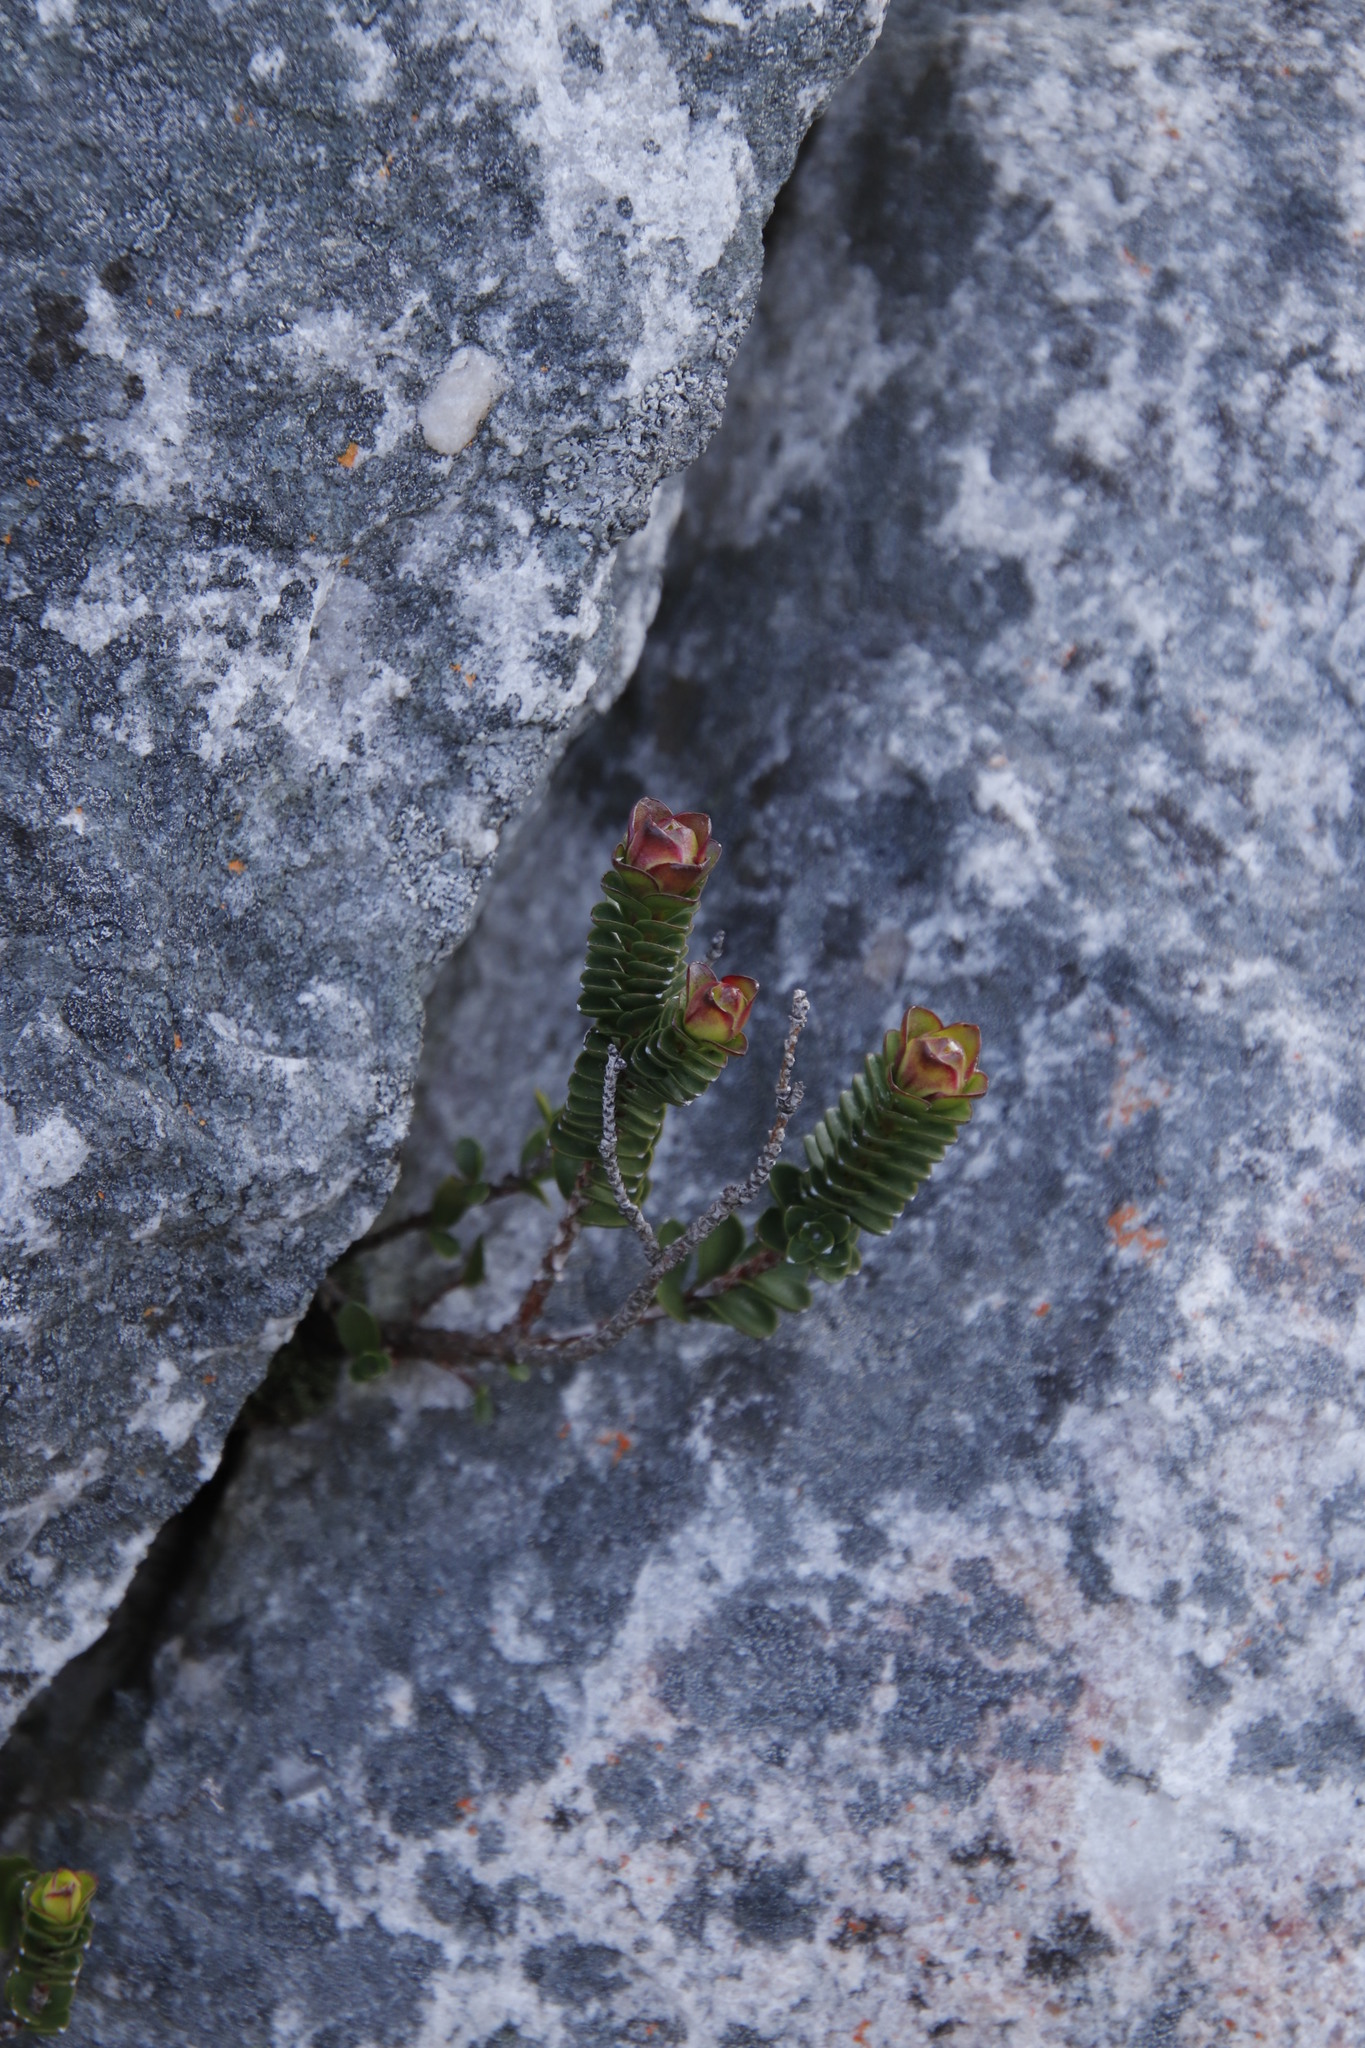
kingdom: Plantae
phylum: Tracheophyta
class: Magnoliopsida
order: Myrtales
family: Penaeaceae
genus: Sonderothamnus
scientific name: Sonderothamnus petraeus
